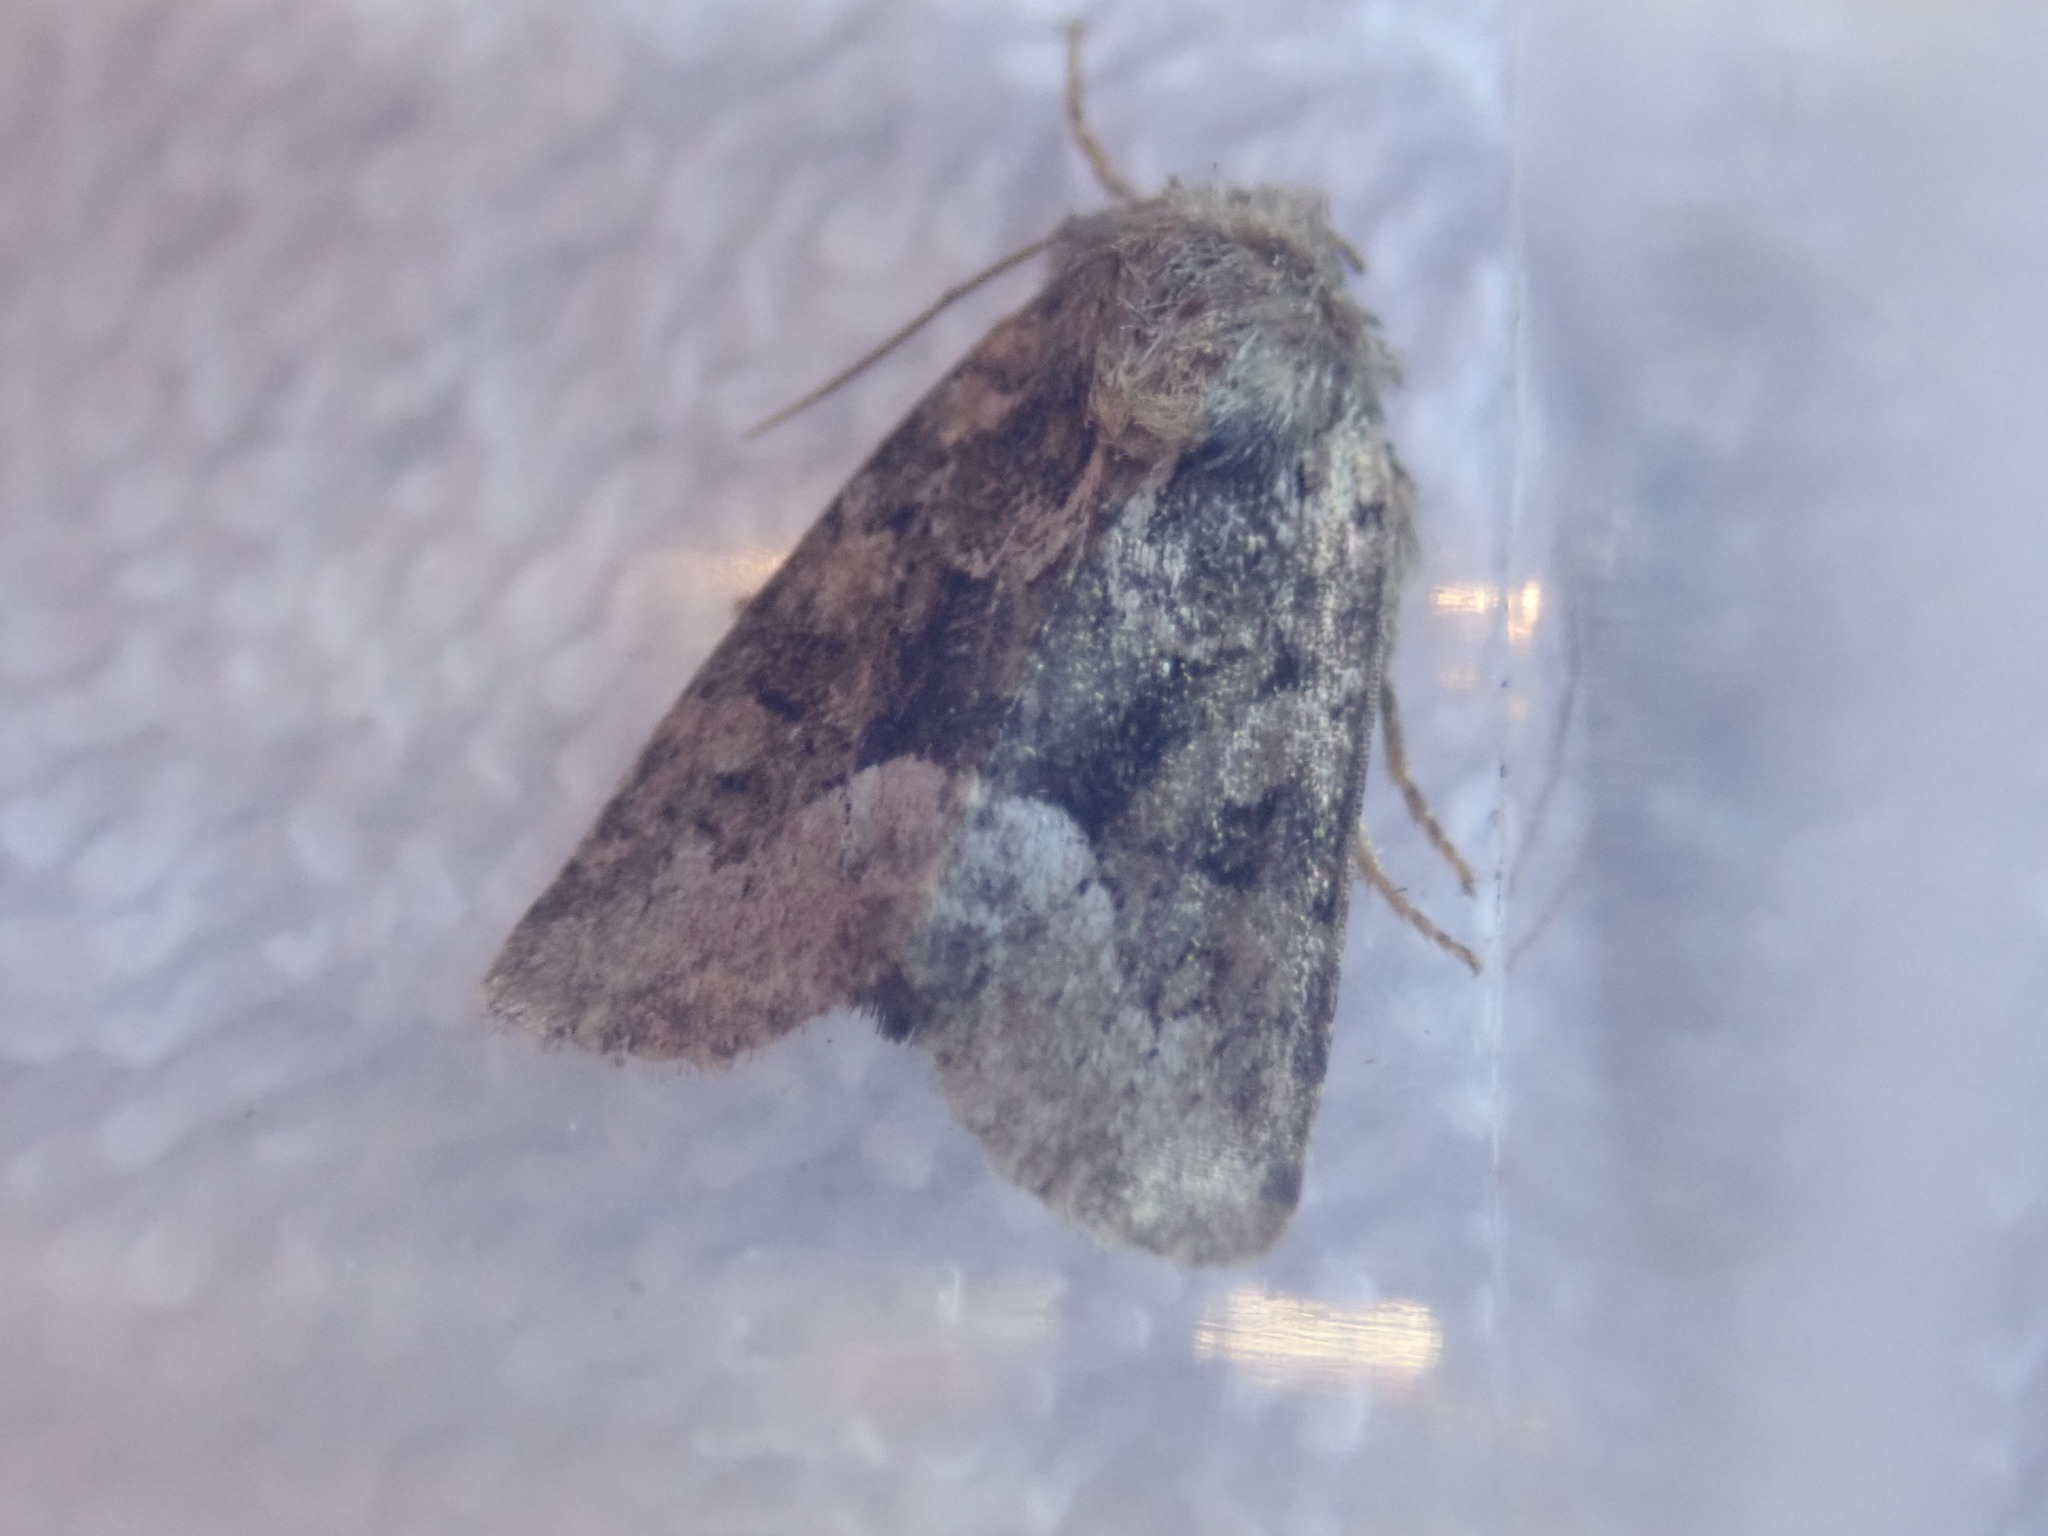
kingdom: Animalia
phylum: Arthropoda
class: Insecta
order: Lepidoptera
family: Noctuidae
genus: Oligia
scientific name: Oligia
